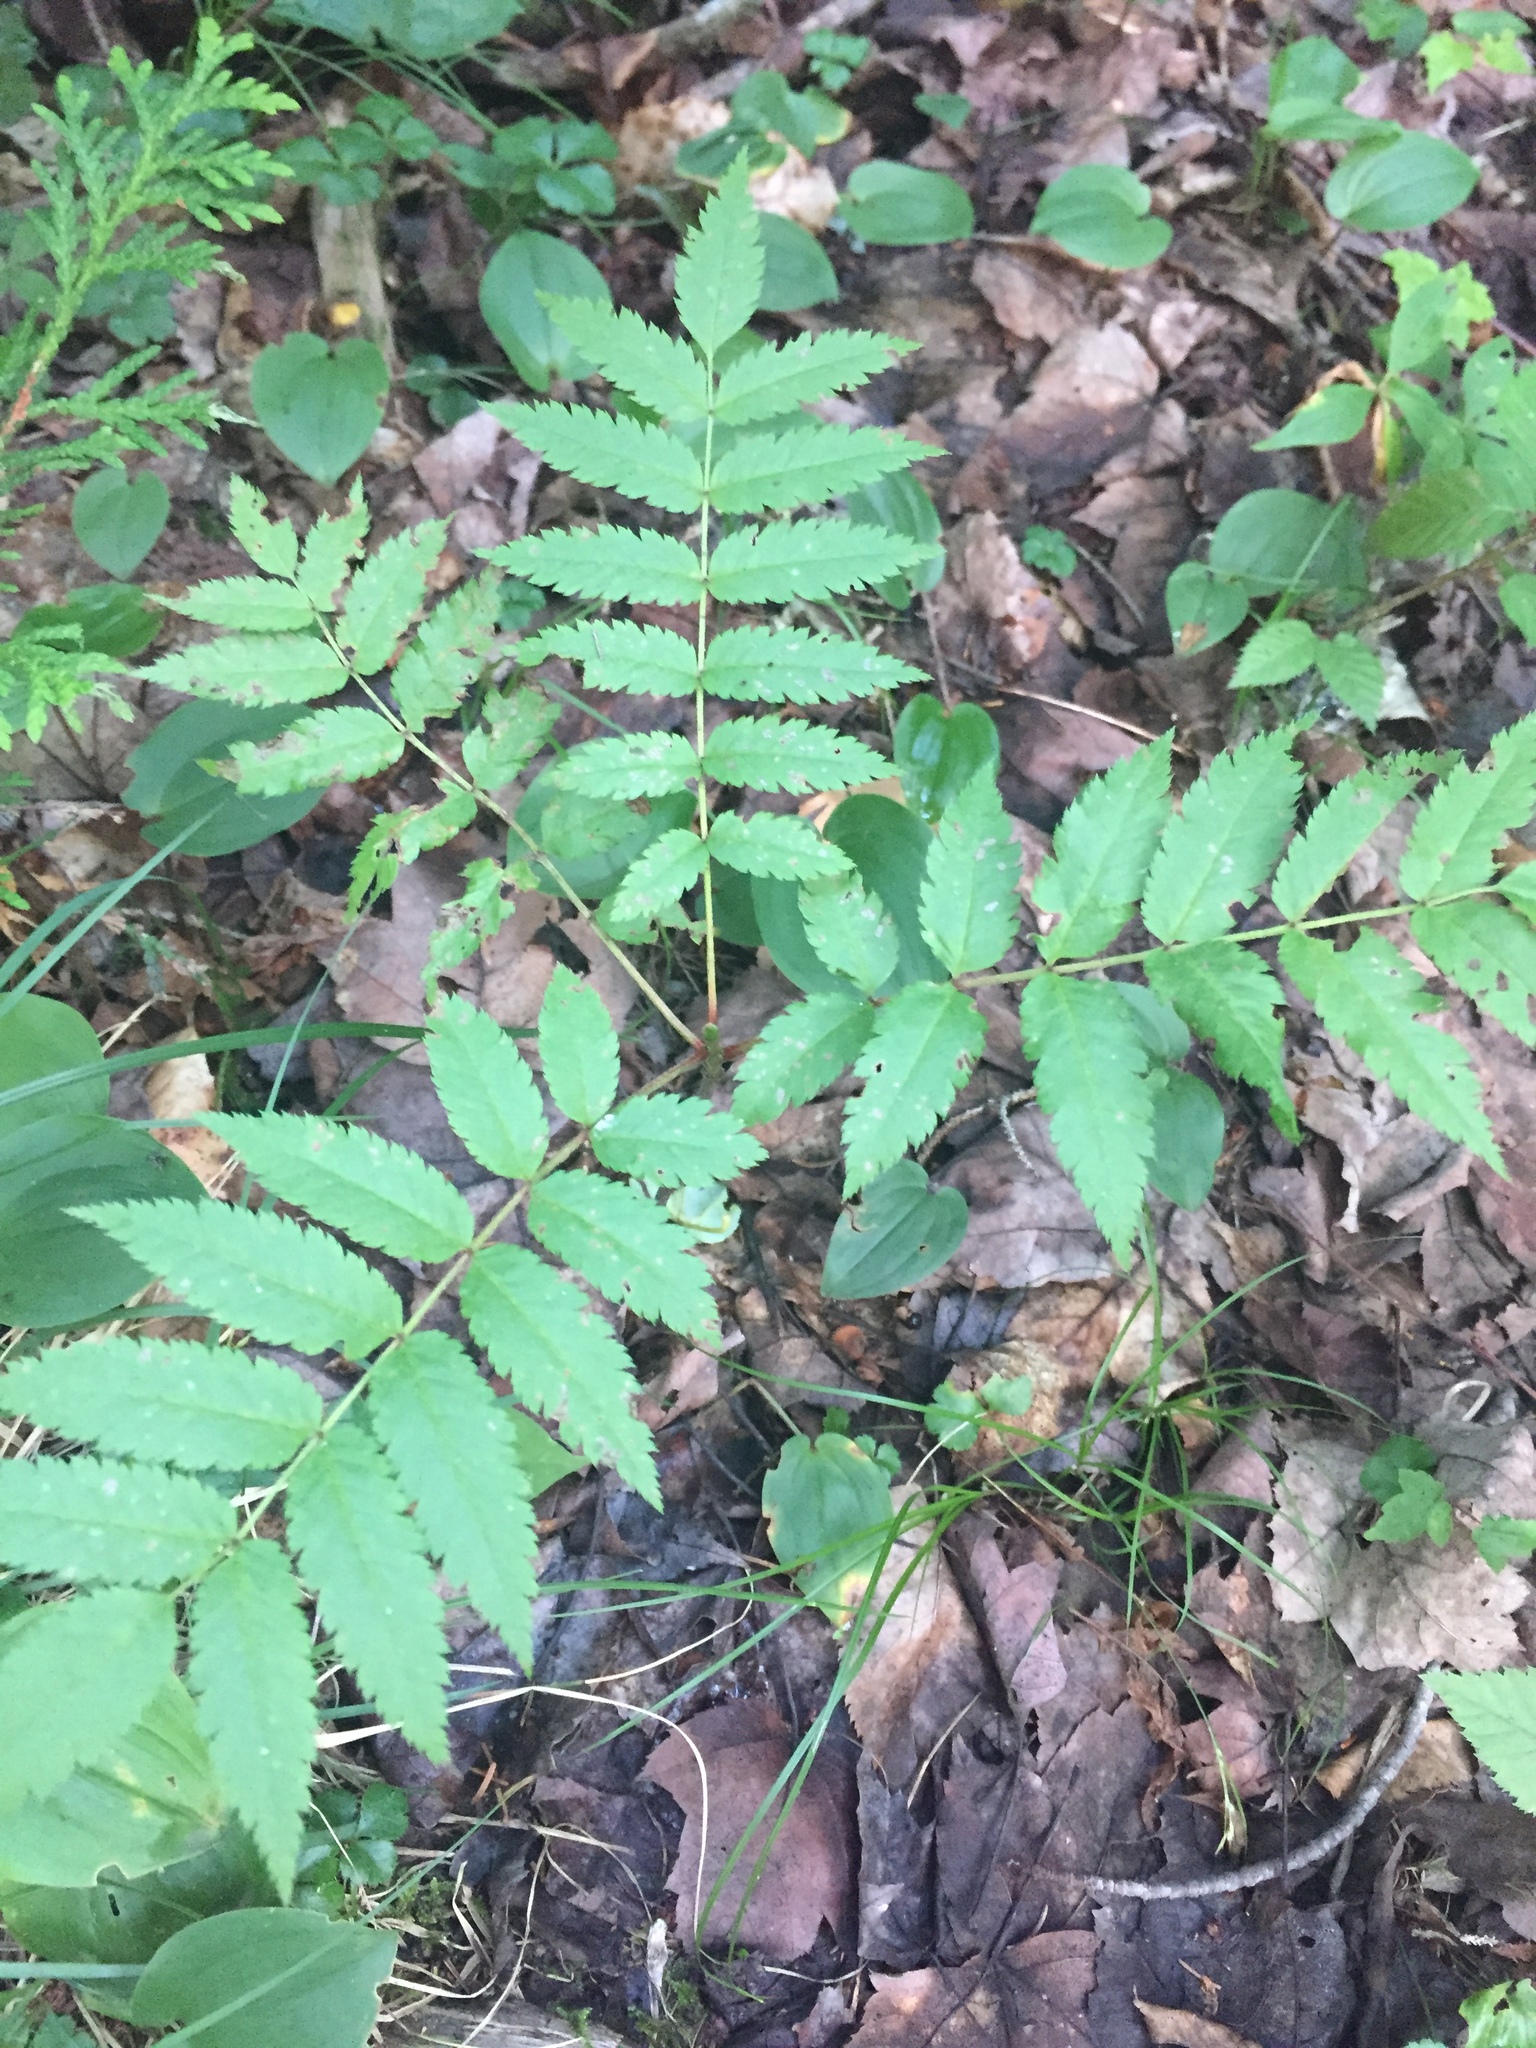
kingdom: Plantae
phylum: Tracheophyta
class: Magnoliopsida
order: Rosales
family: Rosaceae
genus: Sorbus
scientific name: Sorbus americana
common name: American mountain-ash
